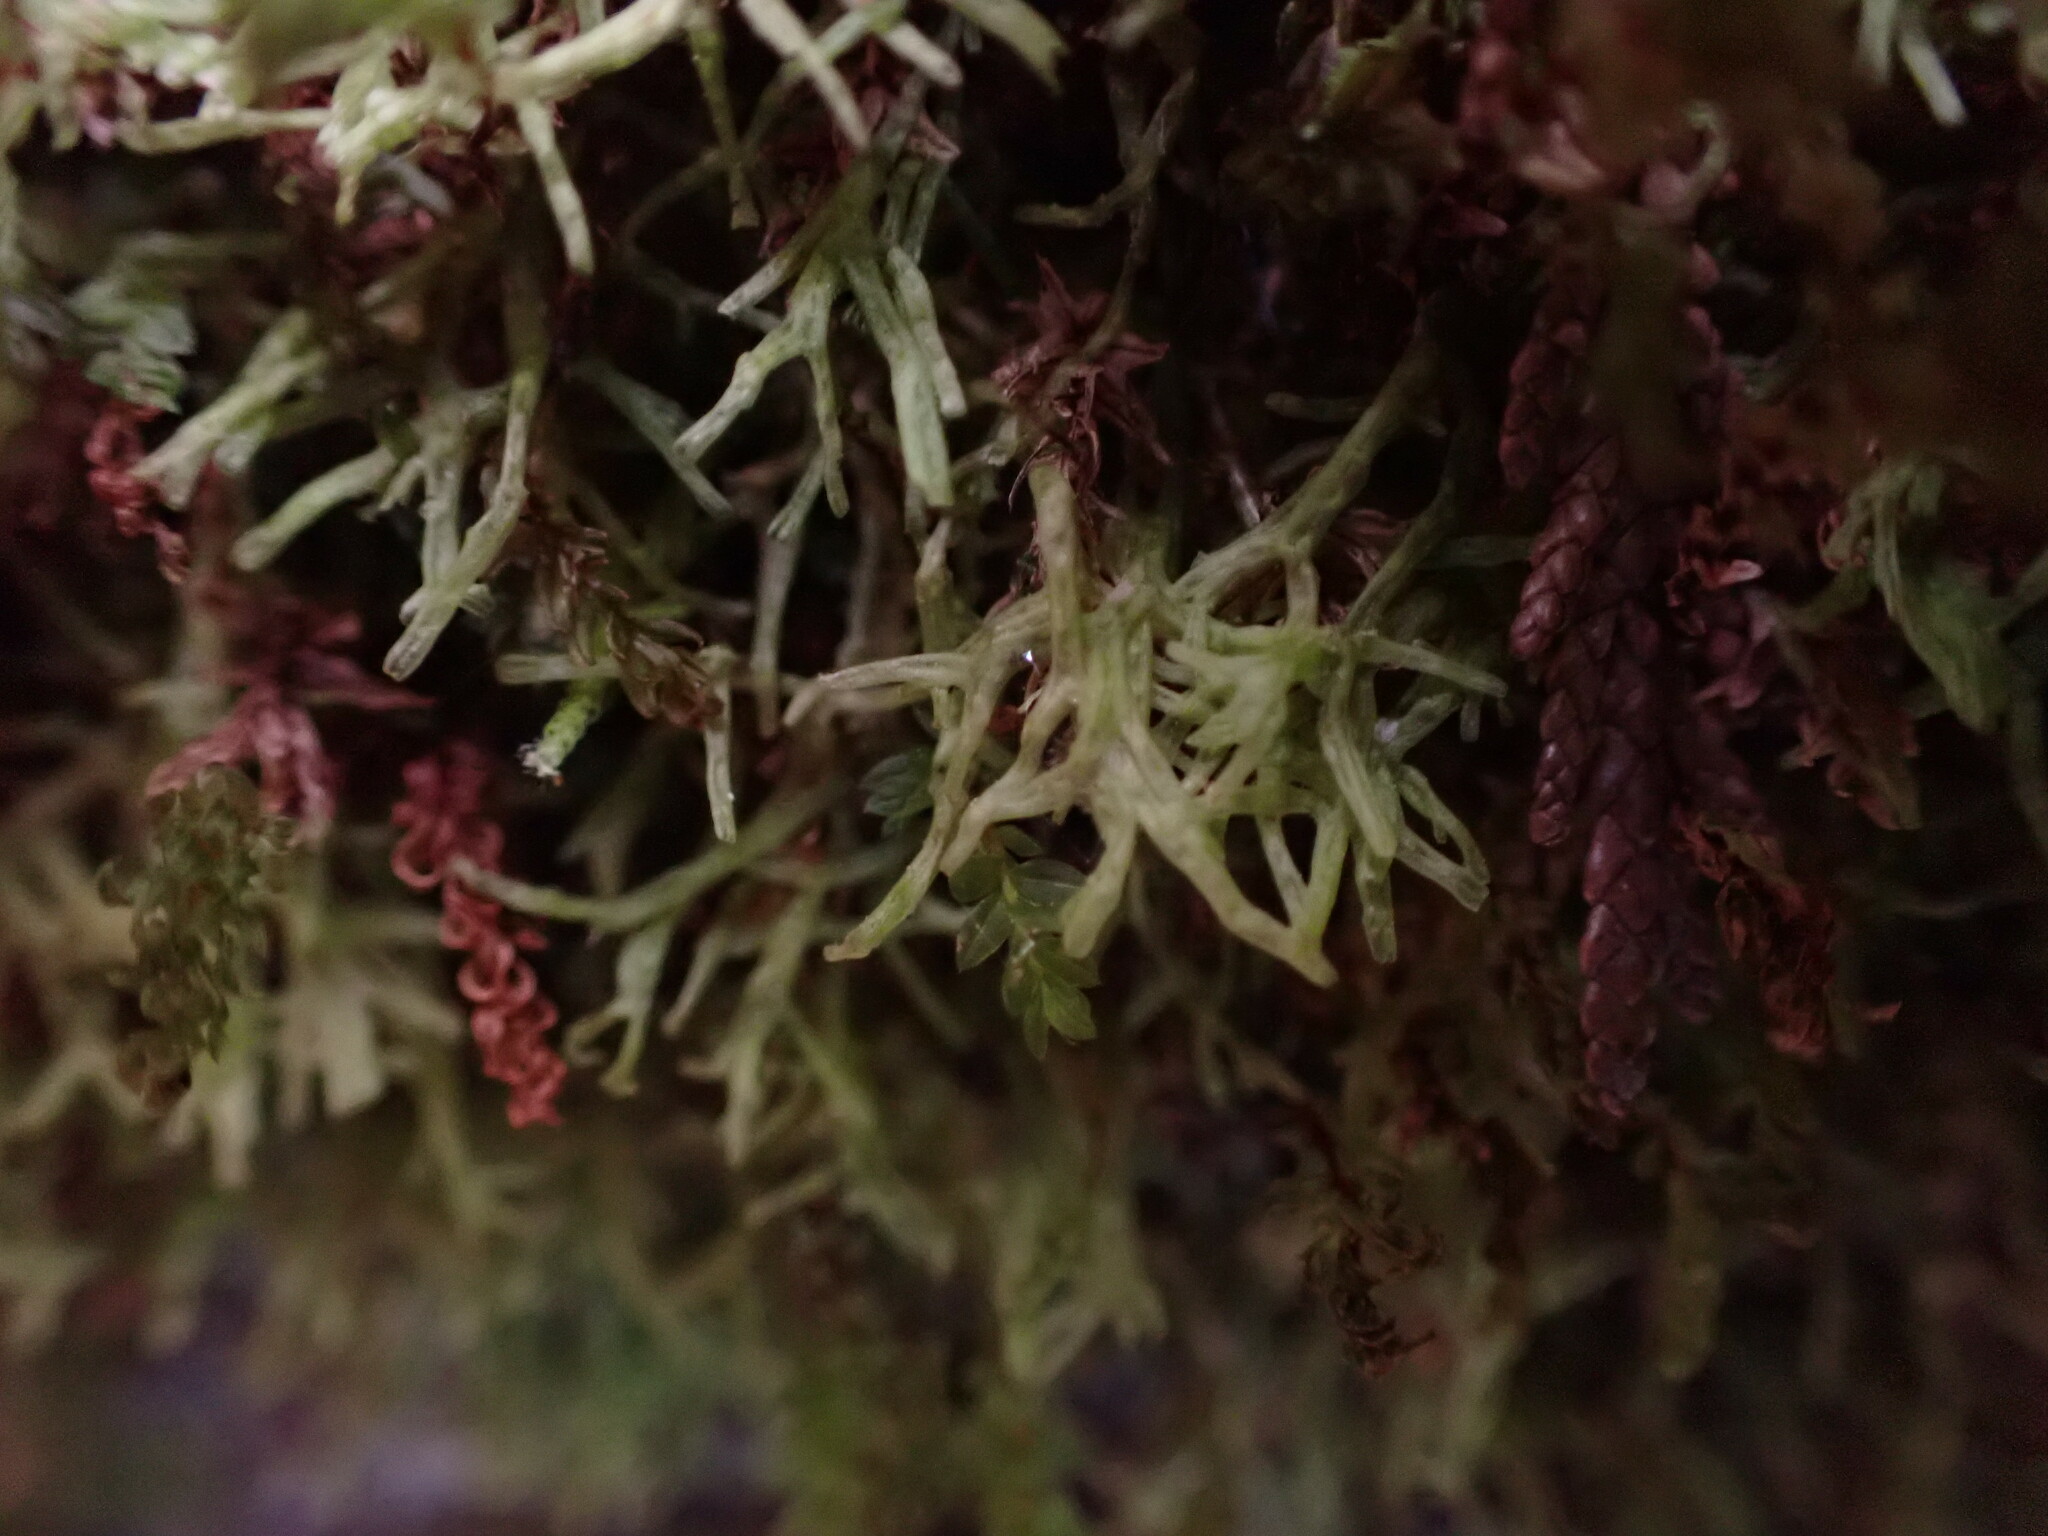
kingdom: Plantae
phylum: Marchantiophyta
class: Jungermanniopsida
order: Metzgeriales
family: Metzgeriaceae
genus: Metzgeria
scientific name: Metzgeria conjugata
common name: Rock veilwort
